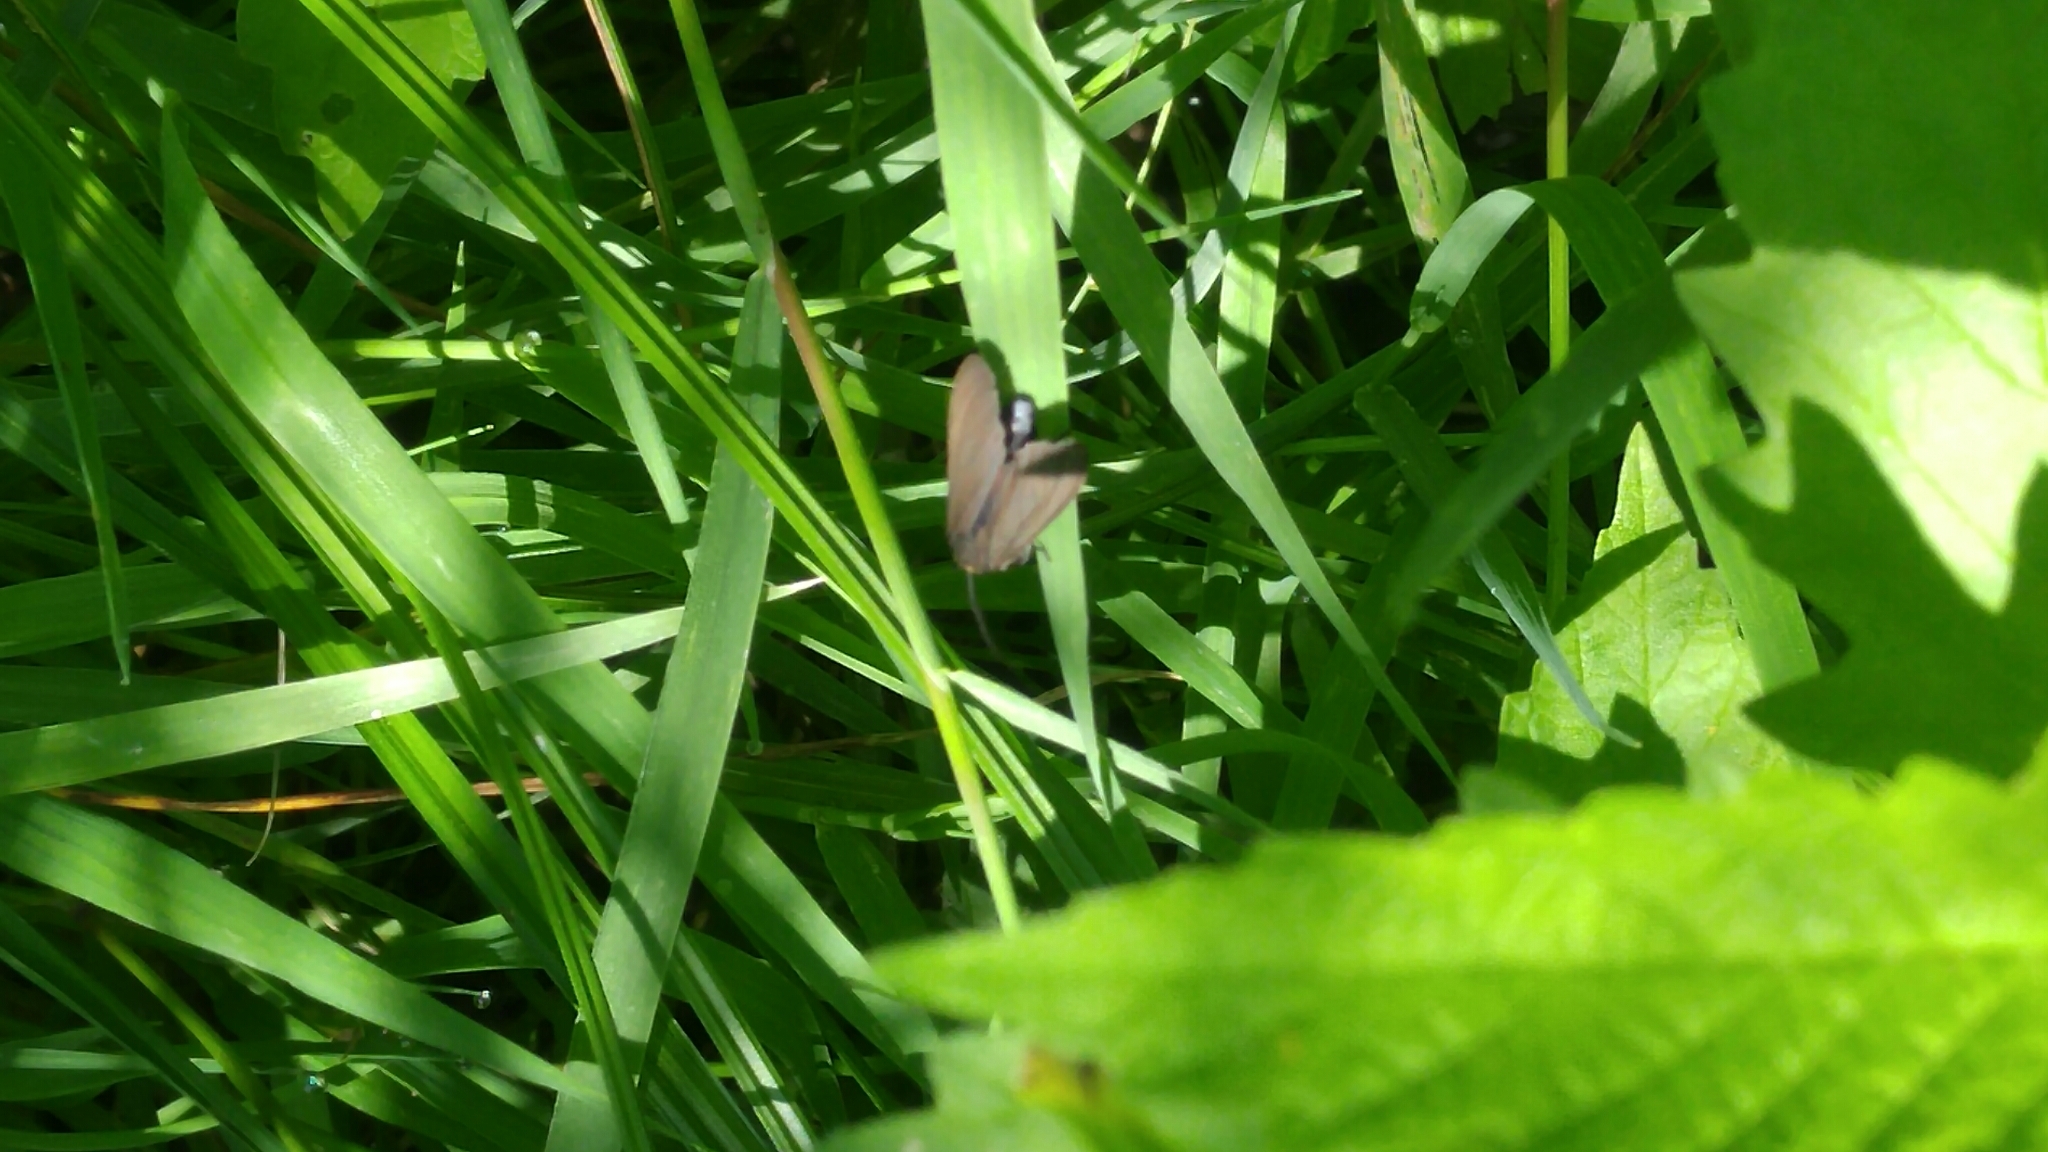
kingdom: Animalia
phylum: Arthropoda
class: Insecta
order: Lepidoptera
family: Erebidae
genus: Cisseps
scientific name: Cisseps fulvicollis
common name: Yellow-collared scape moth
